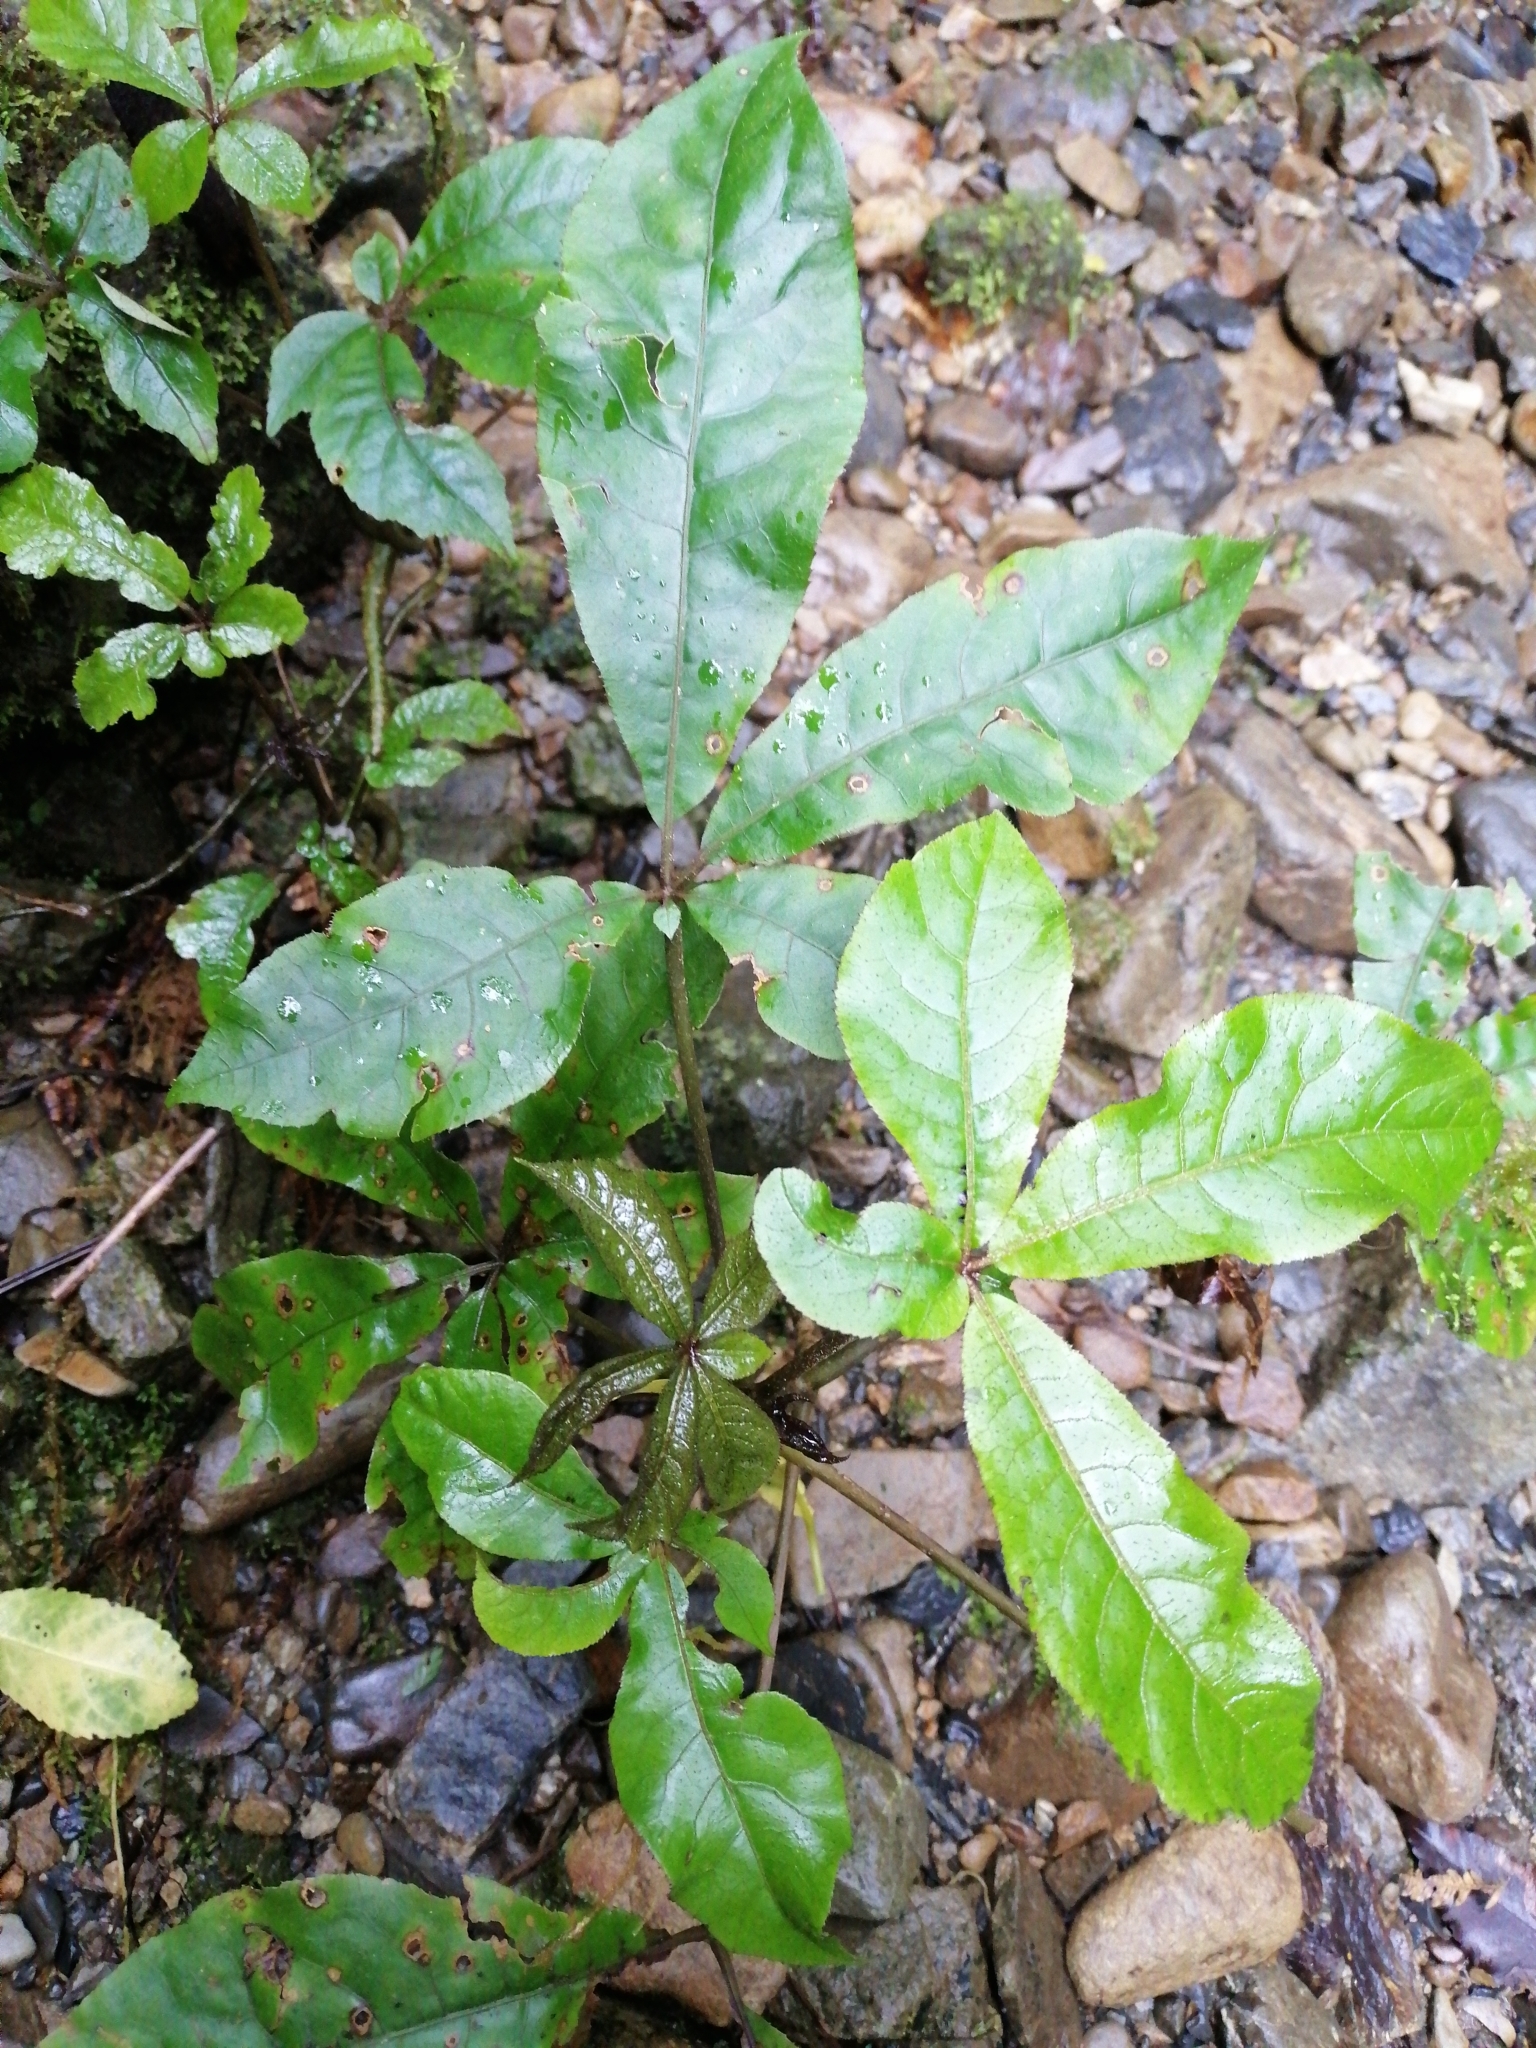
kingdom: Plantae
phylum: Tracheophyta
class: Magnoliopsida
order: Apiales
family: Araliaceae
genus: Schefflera
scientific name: Schefflera digitata
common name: Pate
